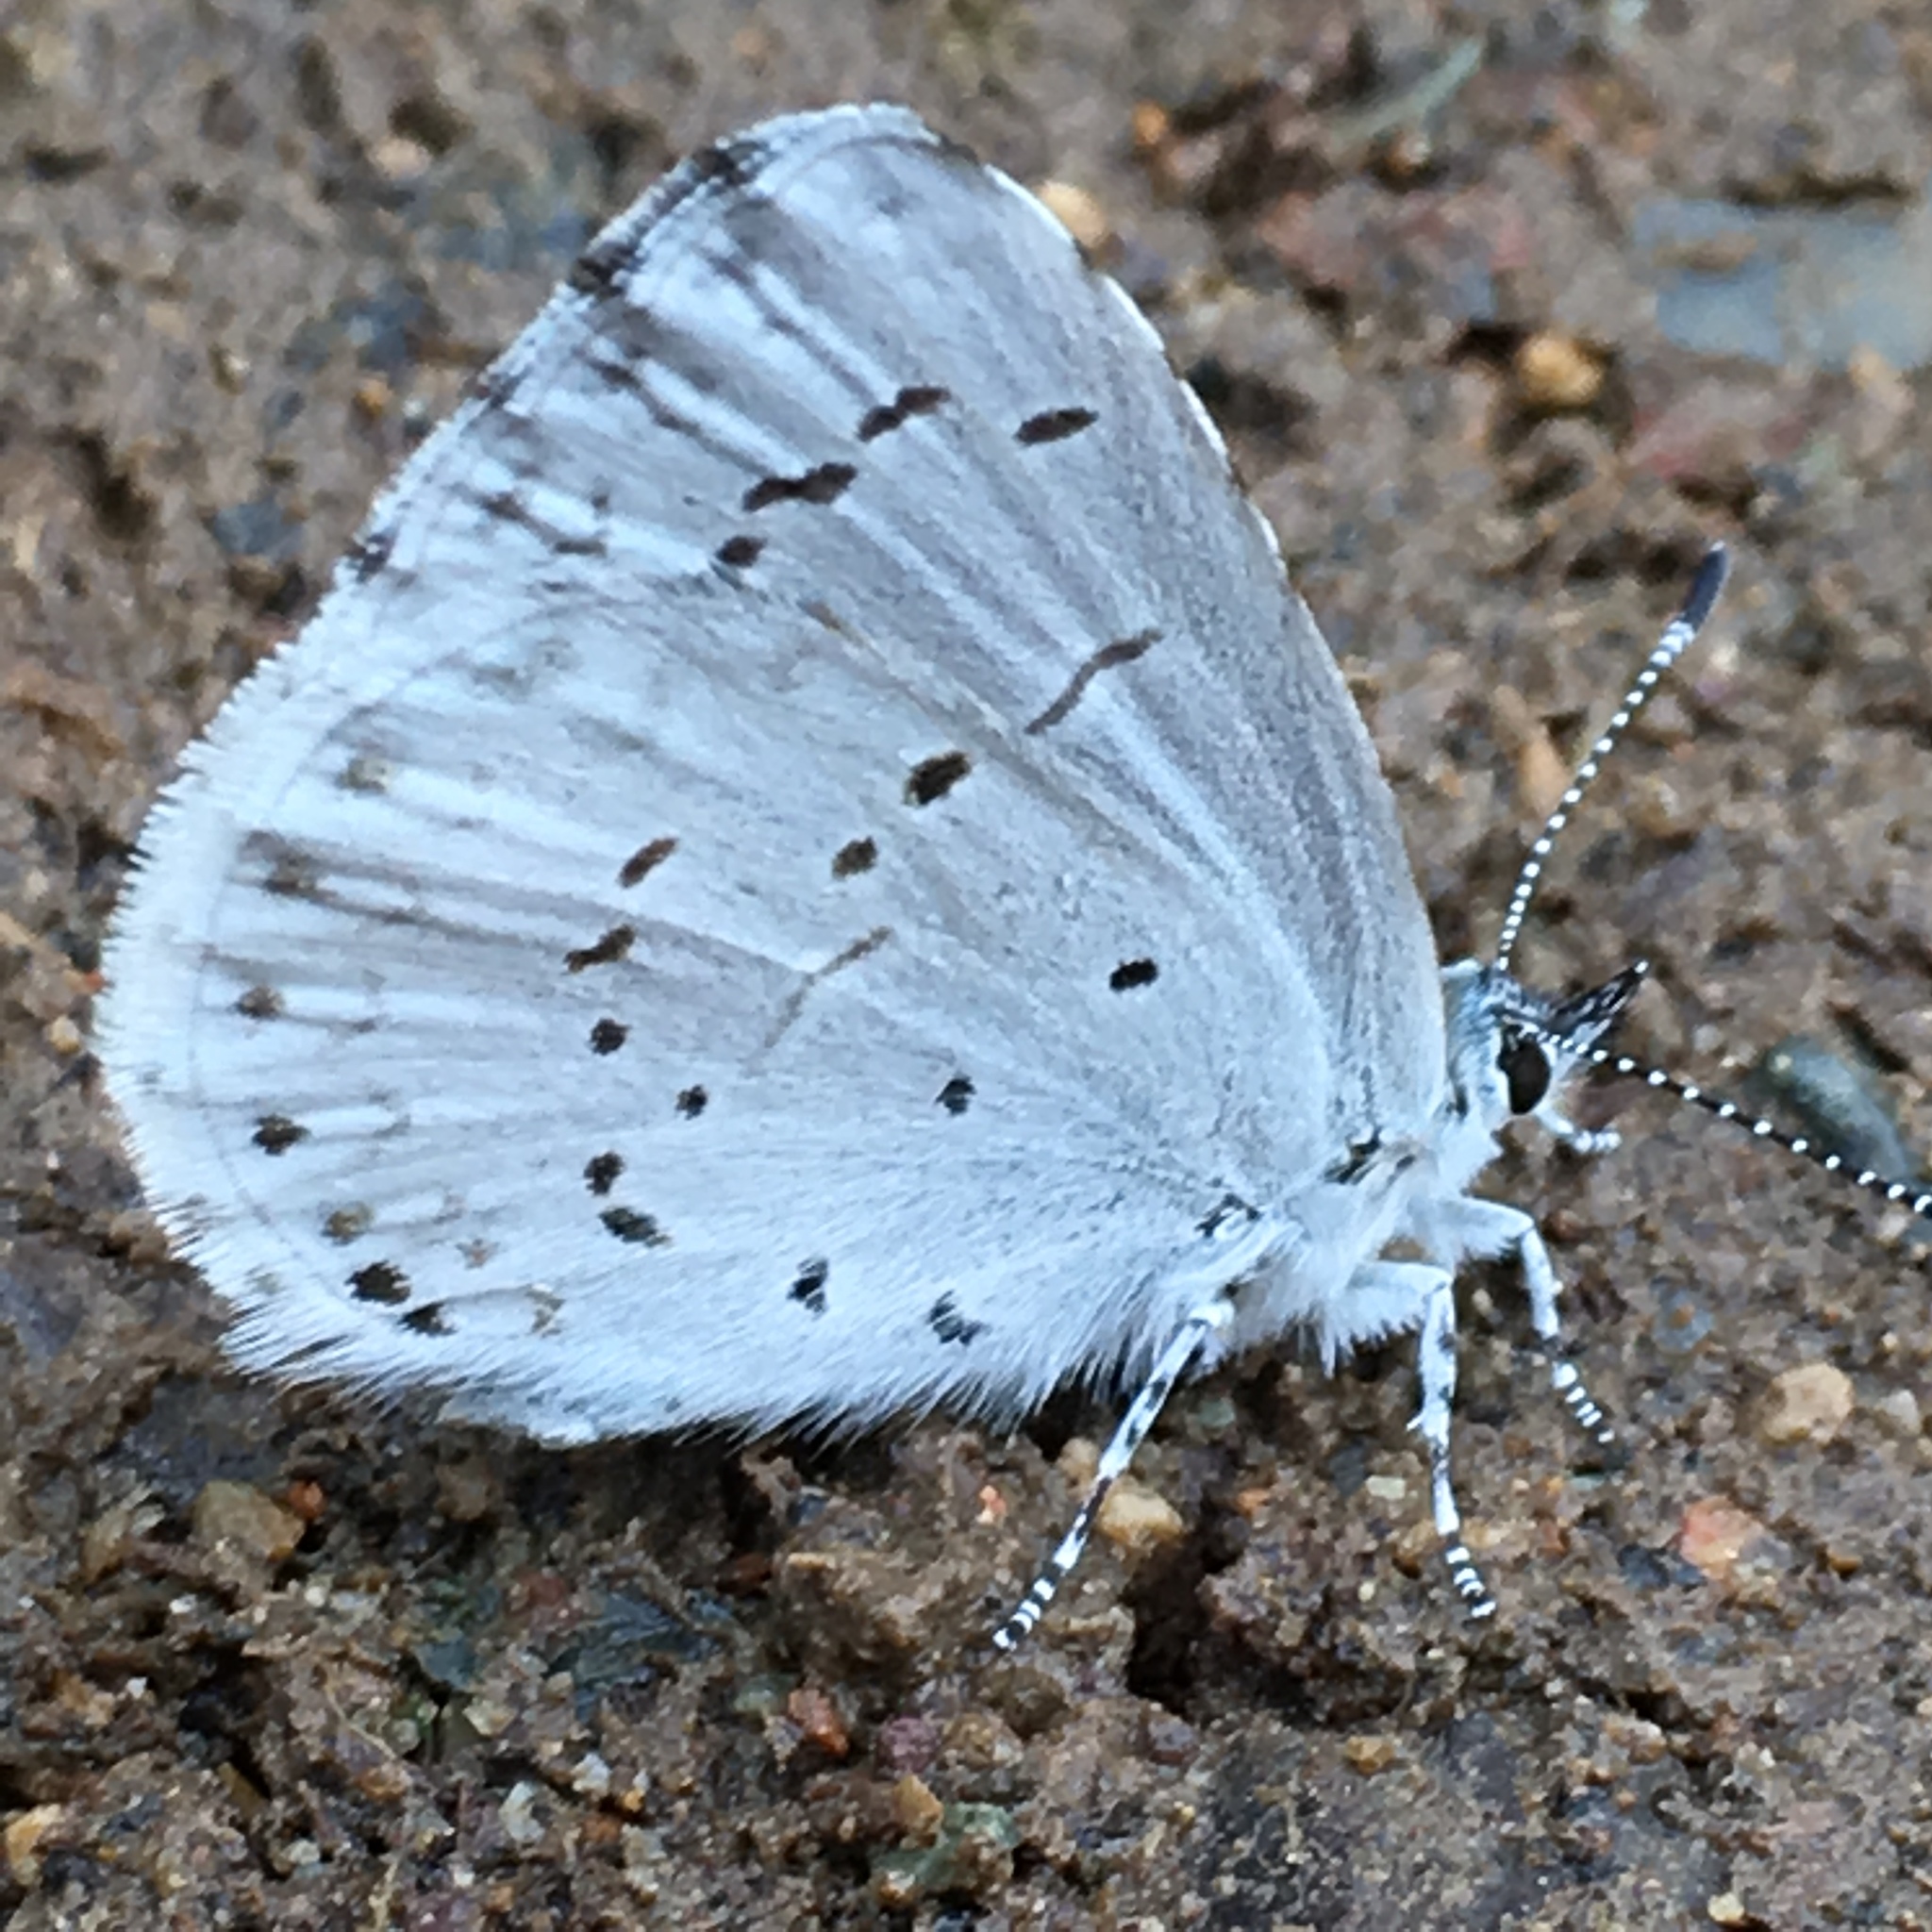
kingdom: Animalia
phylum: Arthropoda
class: Insecta
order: Lepidoptera
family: Lycaenidae
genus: Celastrina
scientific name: Celastrina ladon
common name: Spring azure
